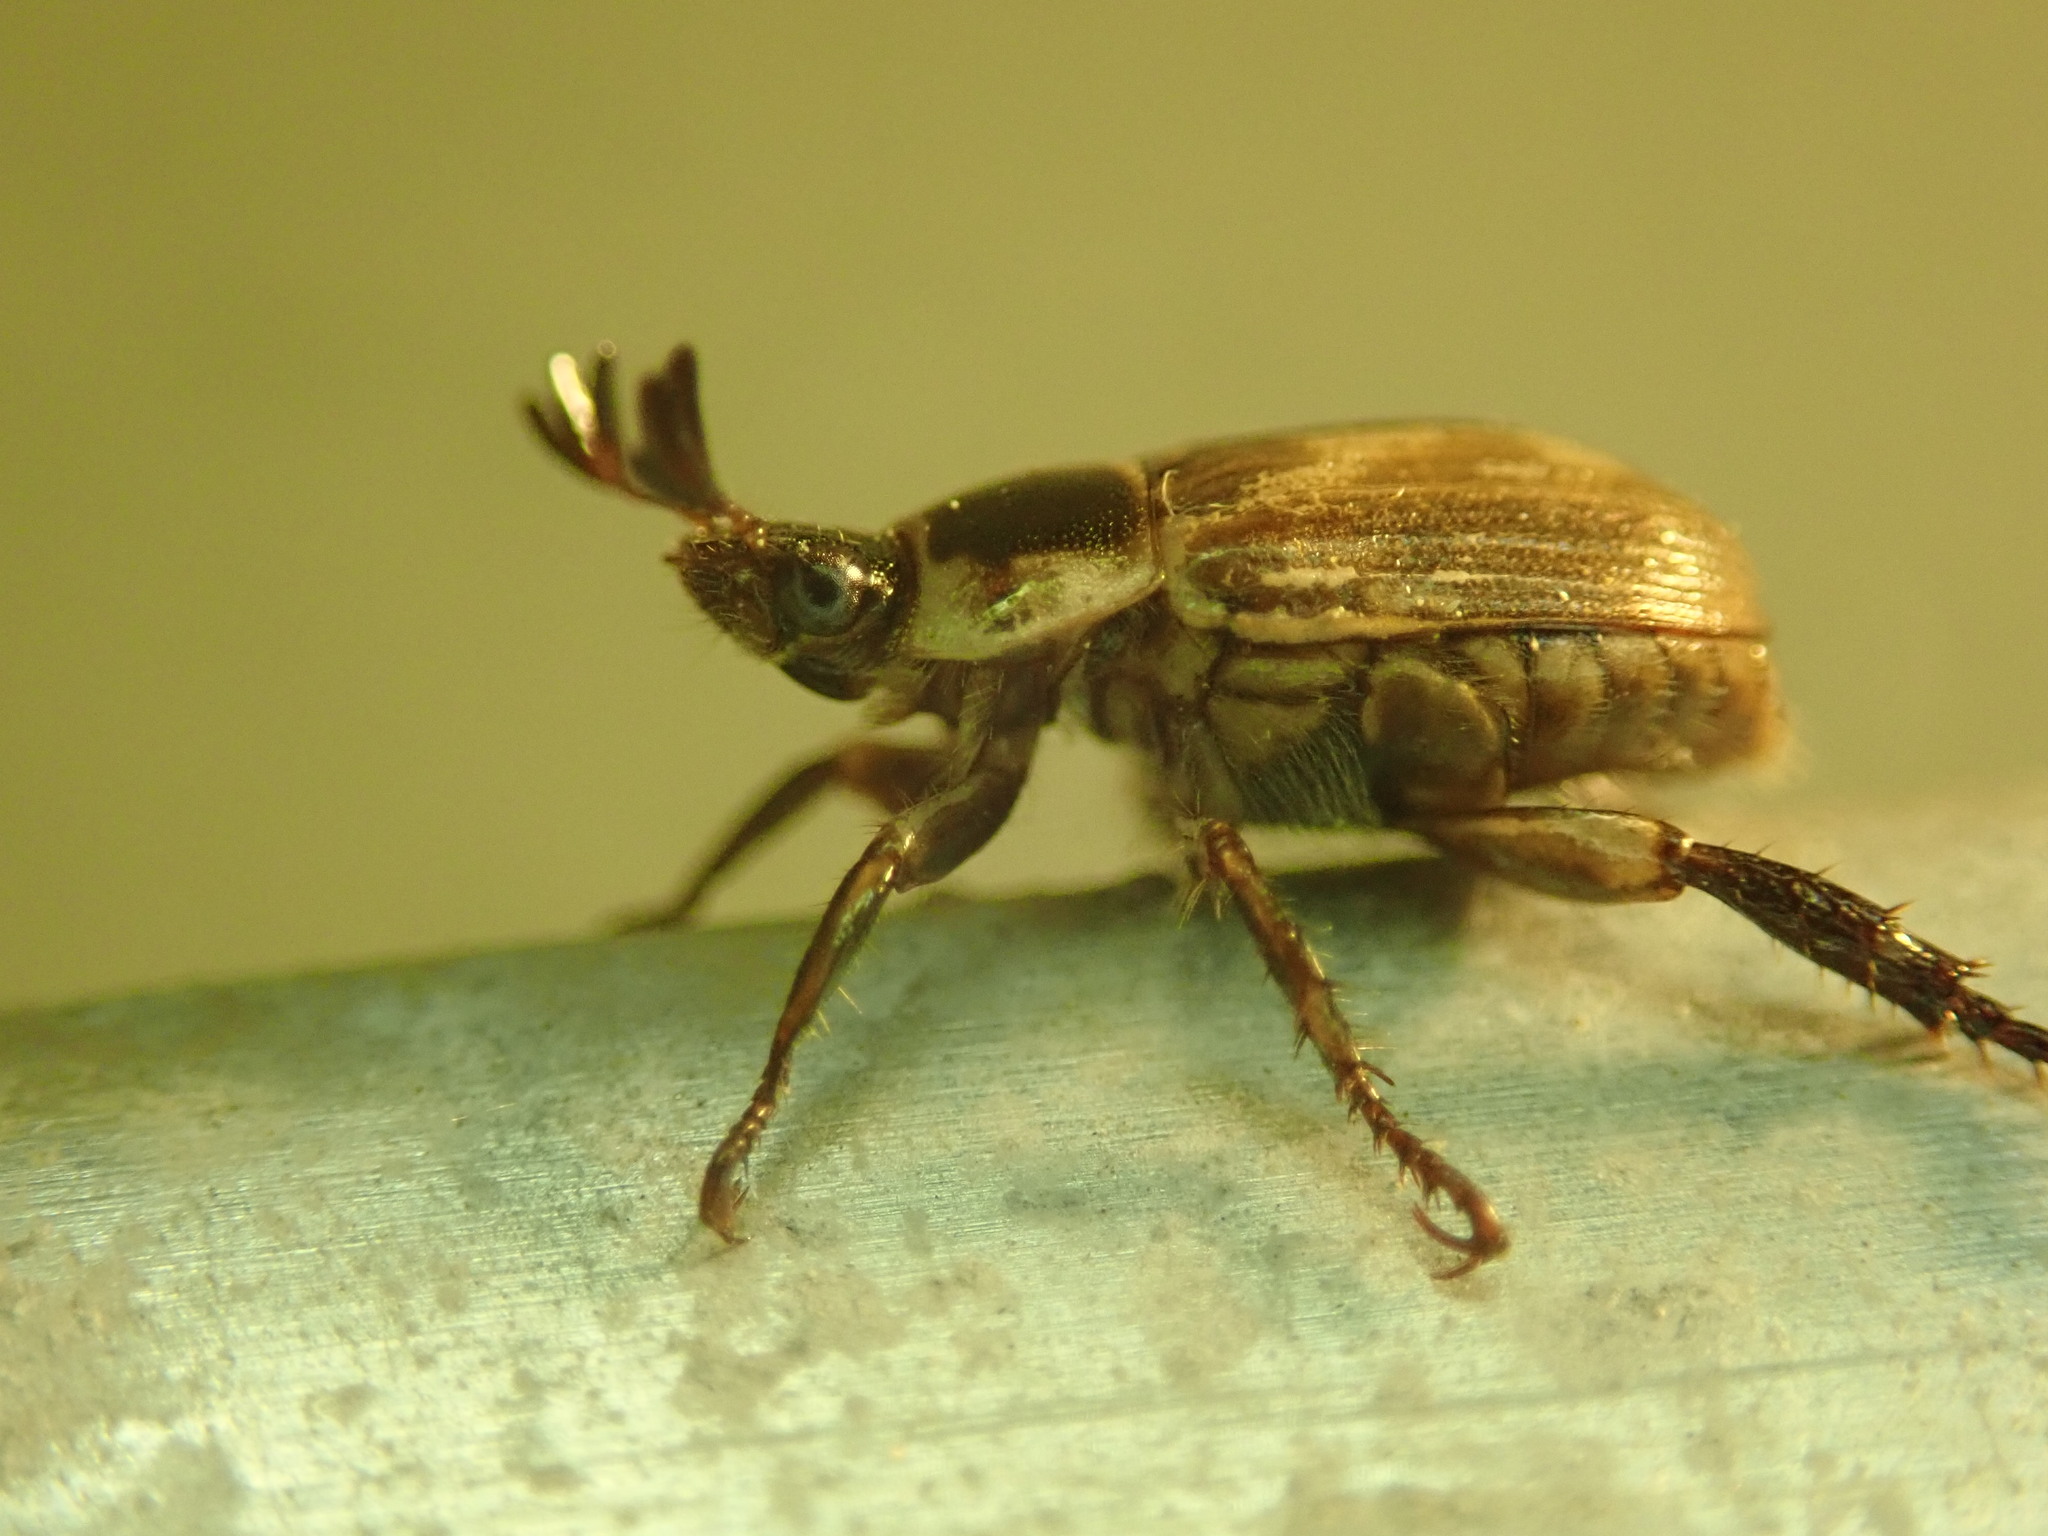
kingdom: Animalia
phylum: Arthropoda
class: Insecta
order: Coleoptera
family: Scarabaeidae
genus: Exomala
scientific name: Exomala orientalis
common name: Oriental beetle
